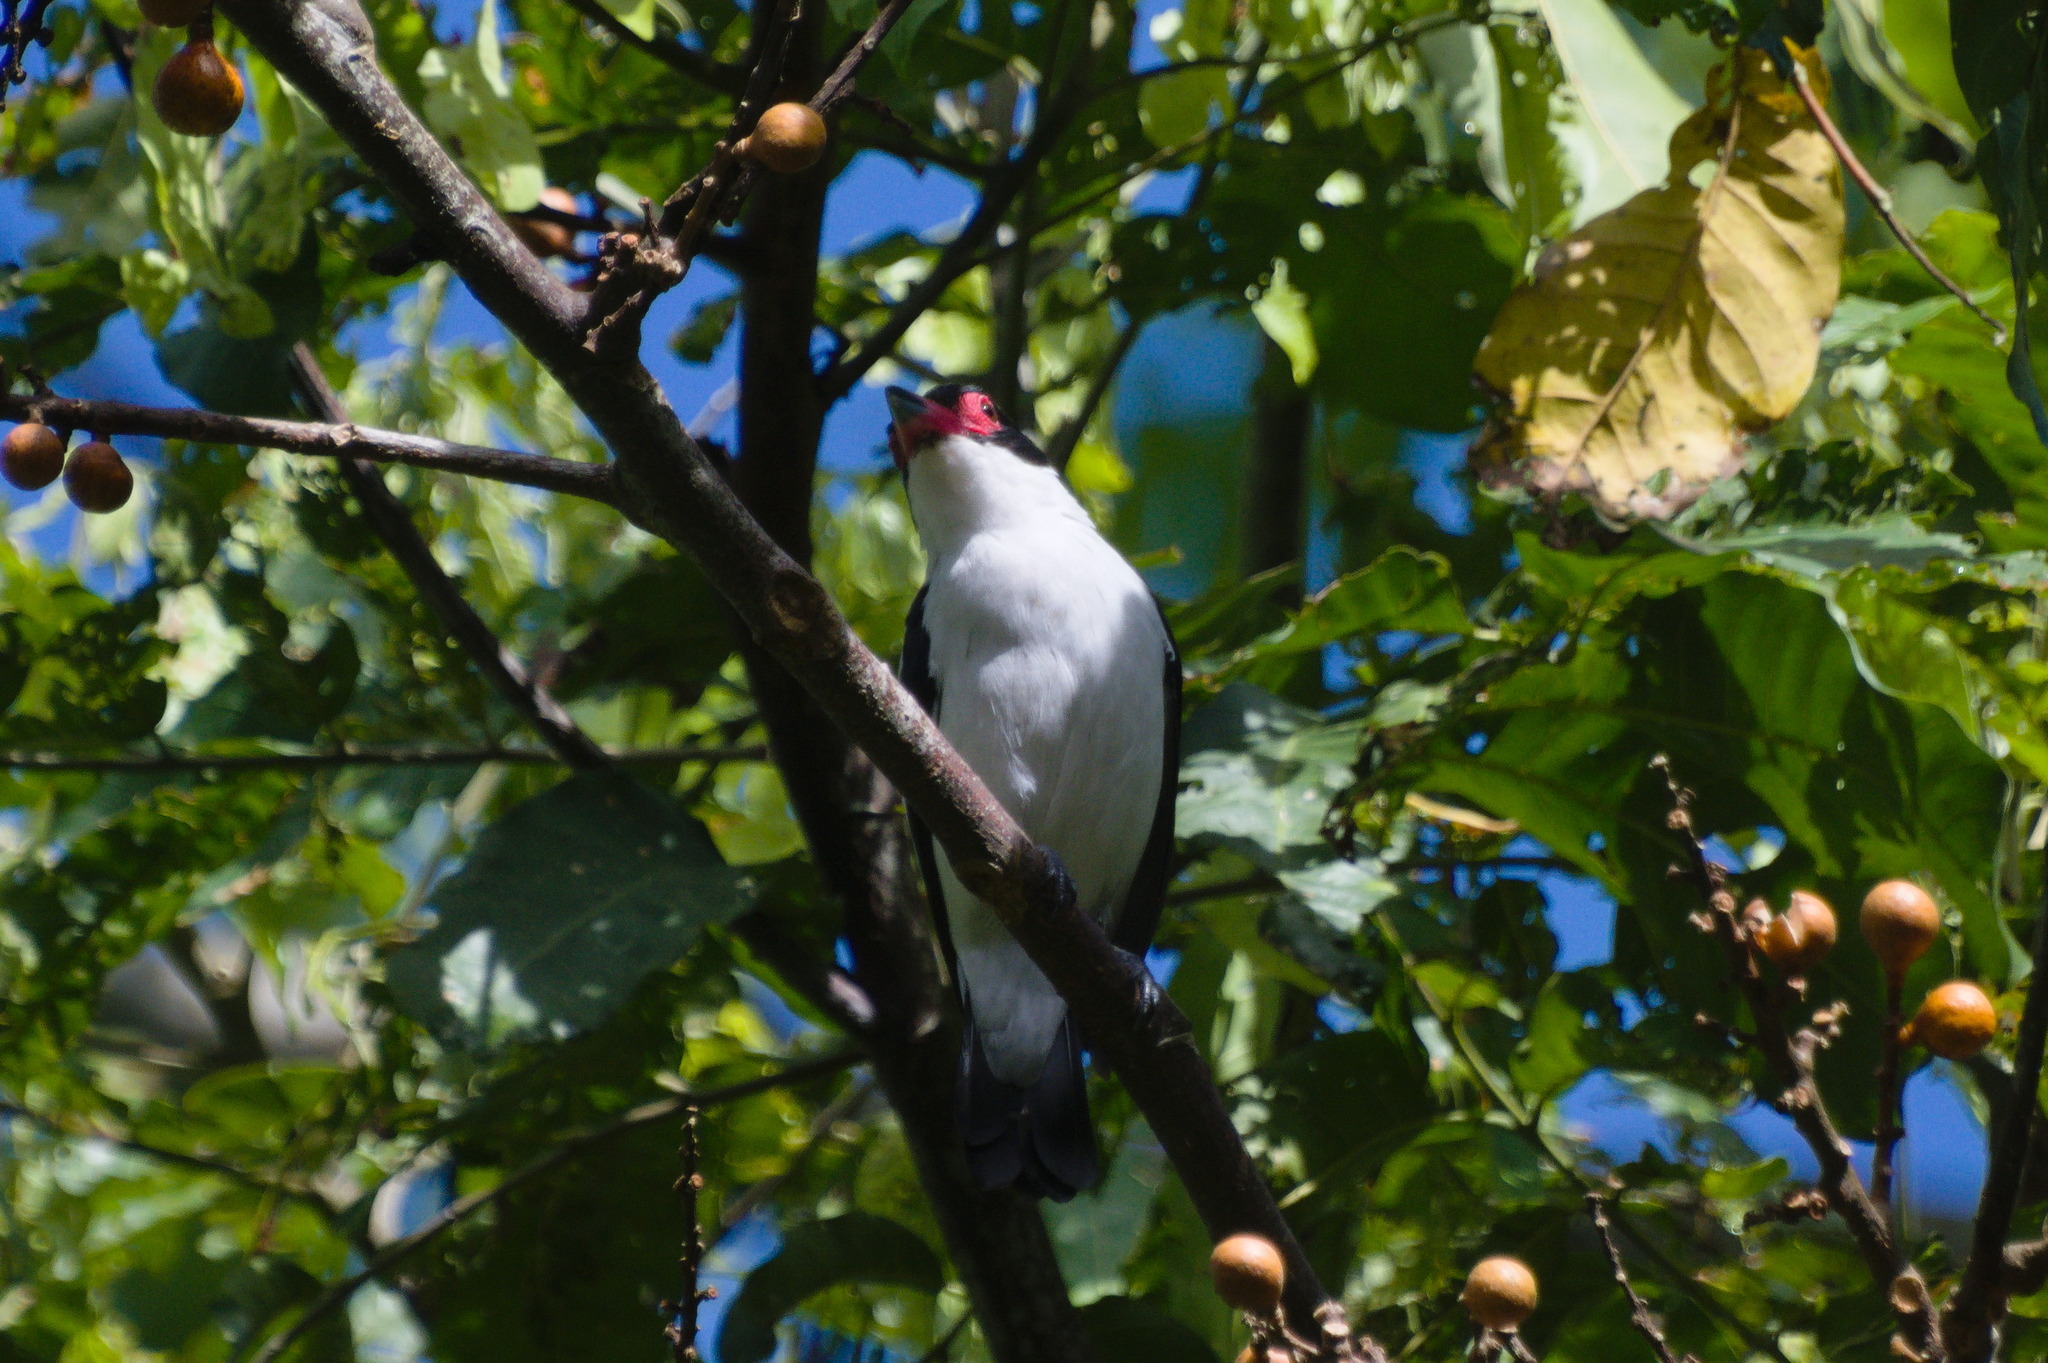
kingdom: Animalia
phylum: Chordata
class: Aves
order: Passeriformes
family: Cotingidae
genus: Tityra
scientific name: Tityra cayana
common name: Black-tailed tityra
